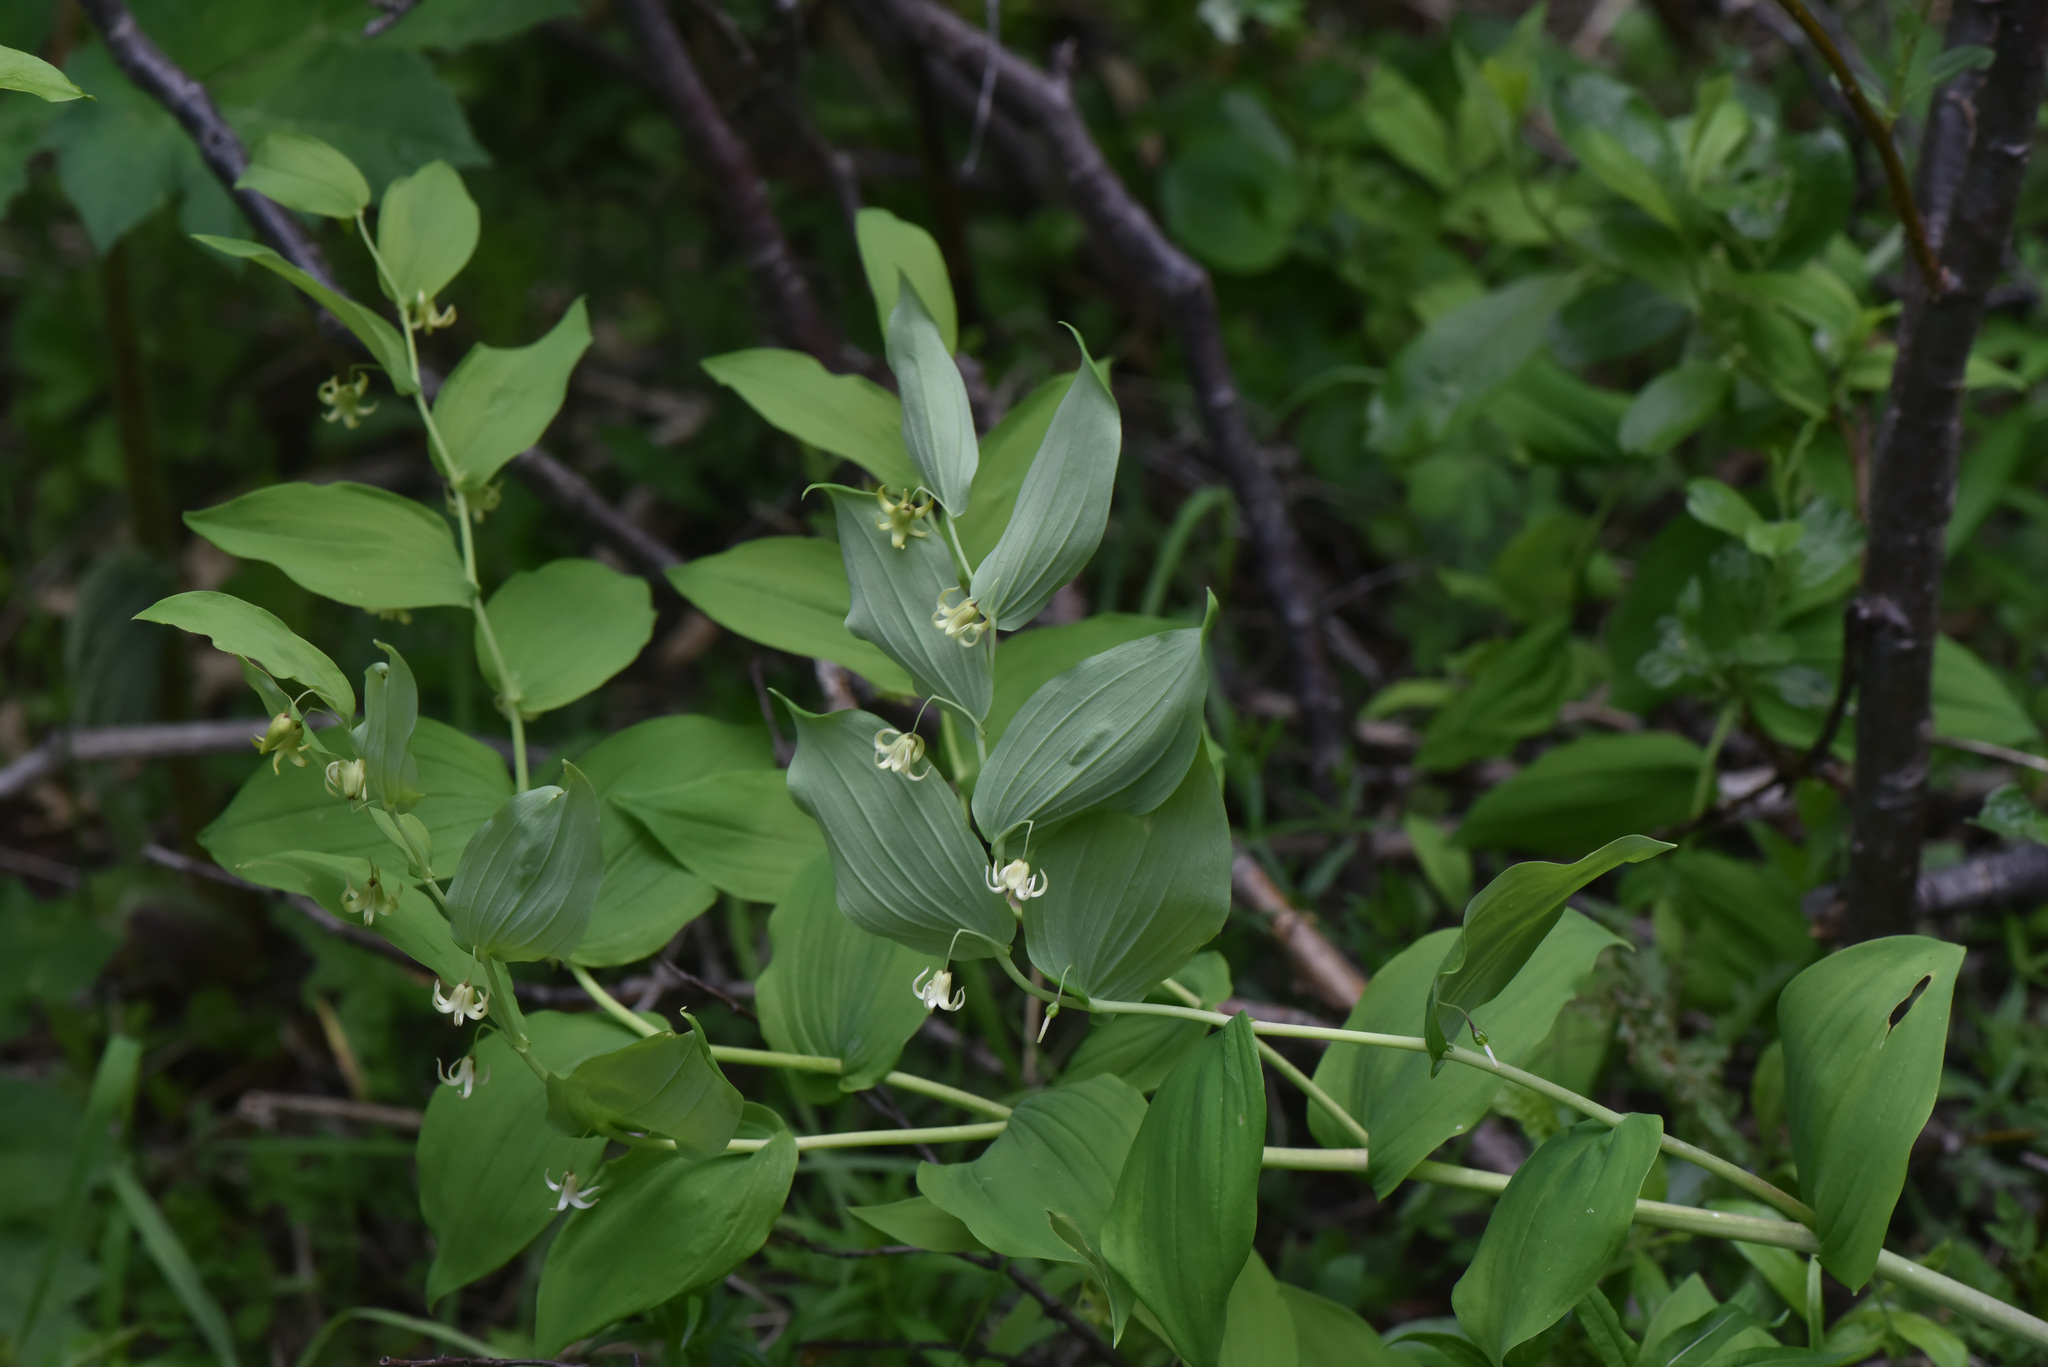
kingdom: Plantae
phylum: Tracheophyta
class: Liliopsida
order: Liliales
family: Liliaceae
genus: Streptopus
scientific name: Streptopus amplexifolius
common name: Clasp twisted stalk
